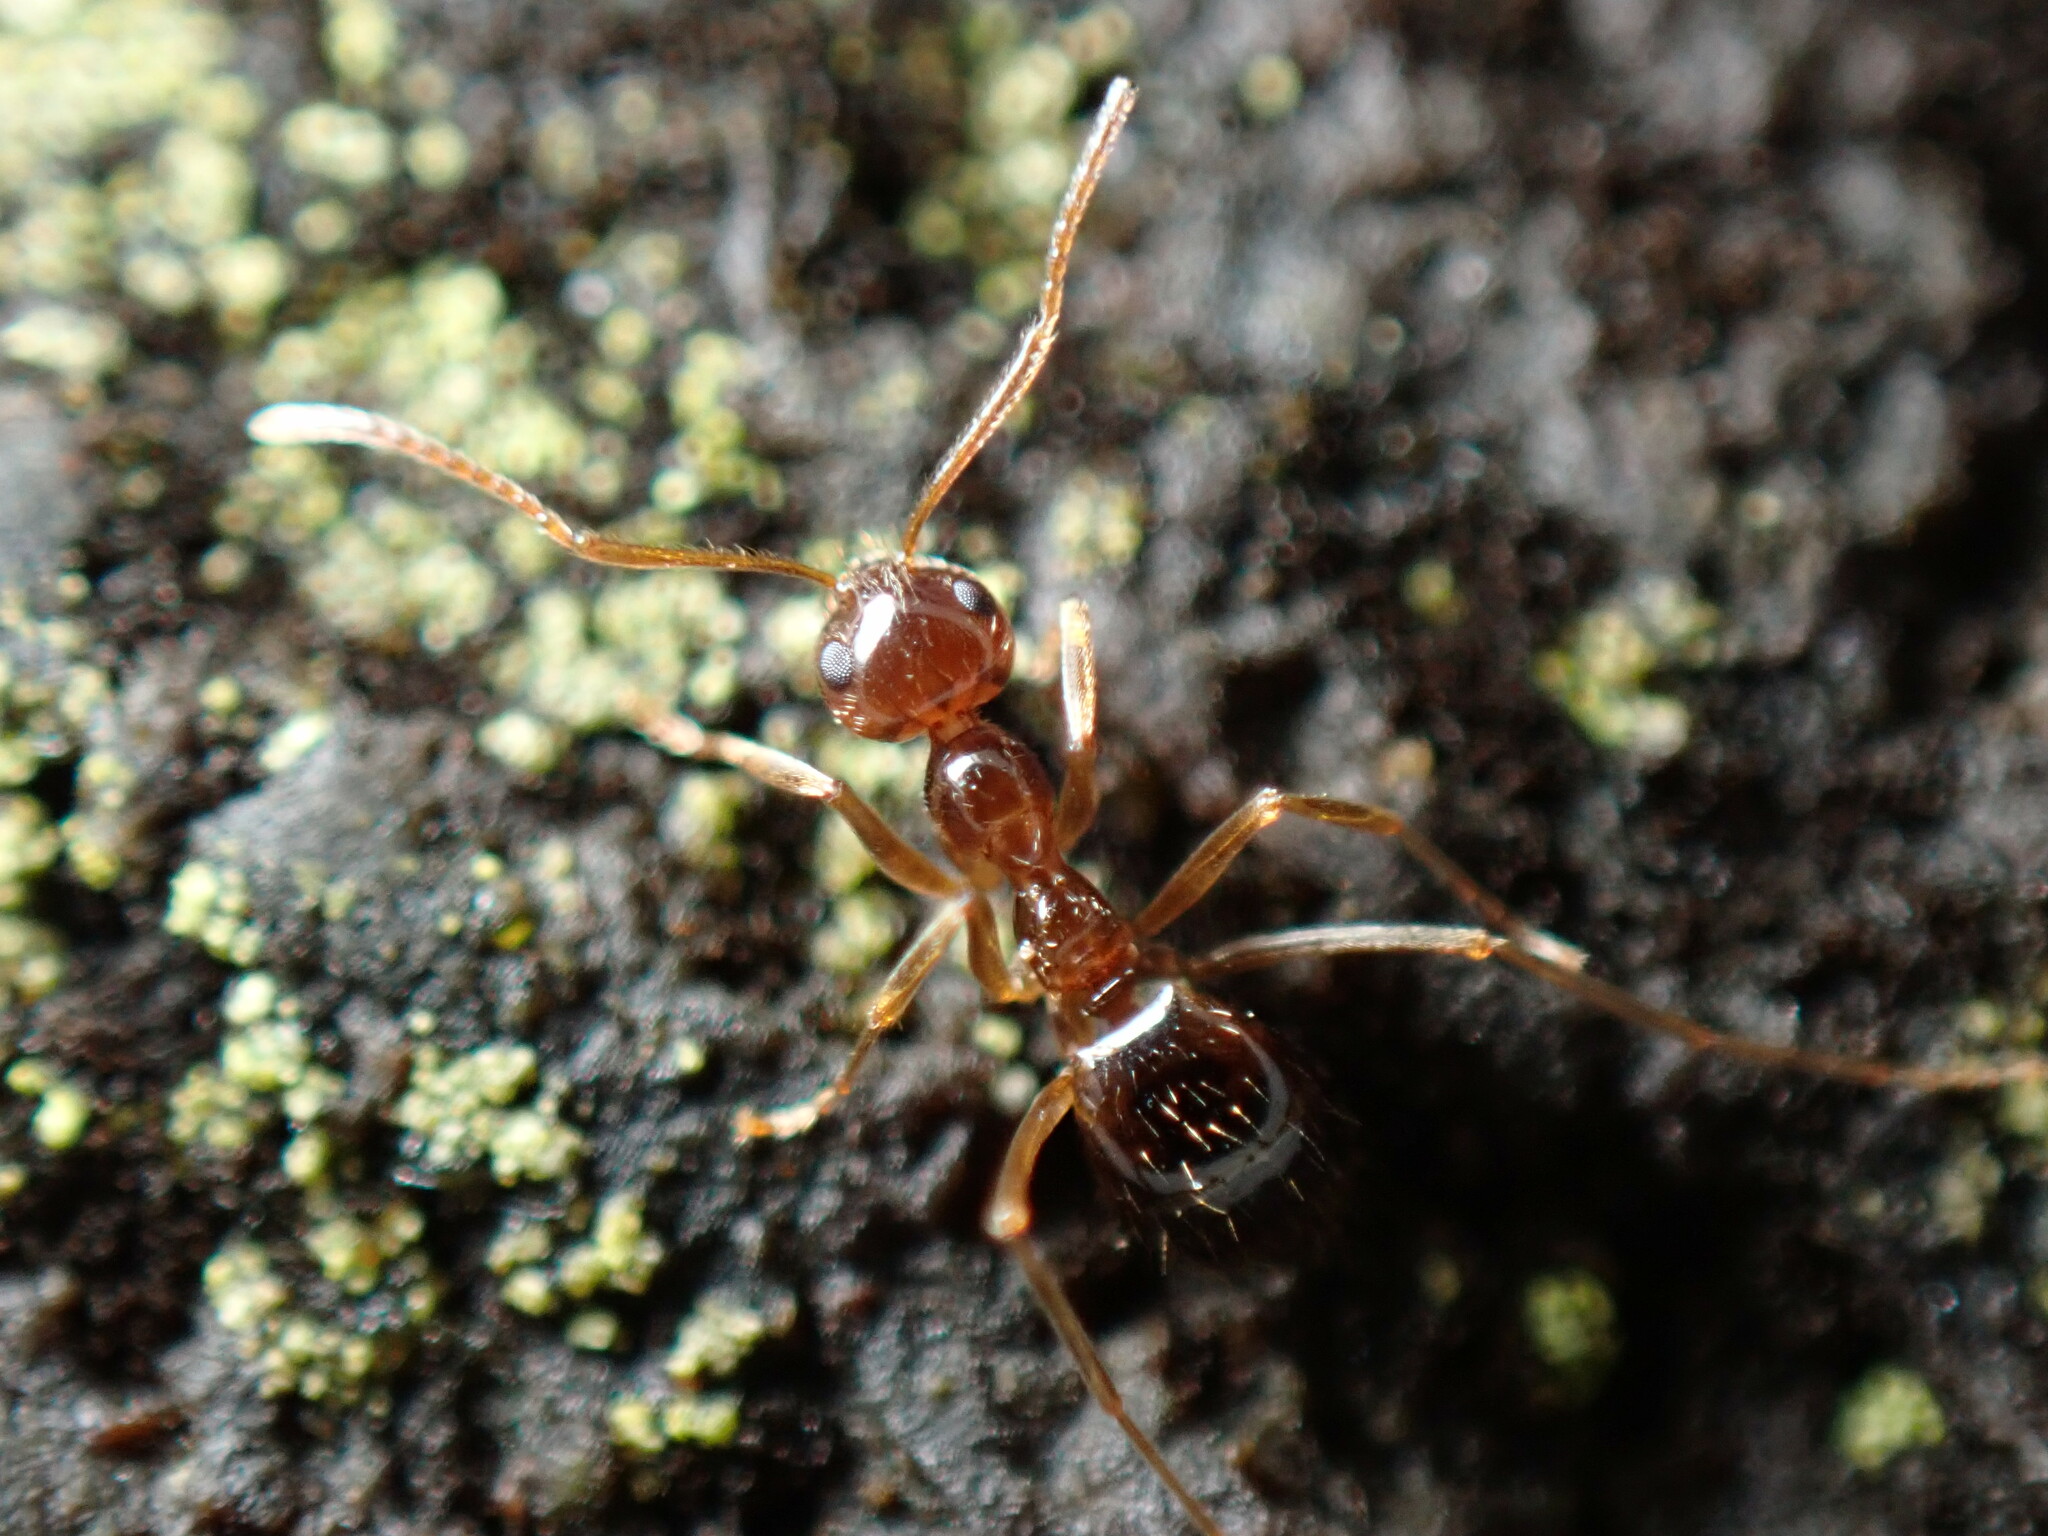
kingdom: Animalia
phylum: Arthropoda
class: Insecta
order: Hymenoptera
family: Formicidae
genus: Prenolepis
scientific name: Prenolepis imparis
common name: Small honey ant
